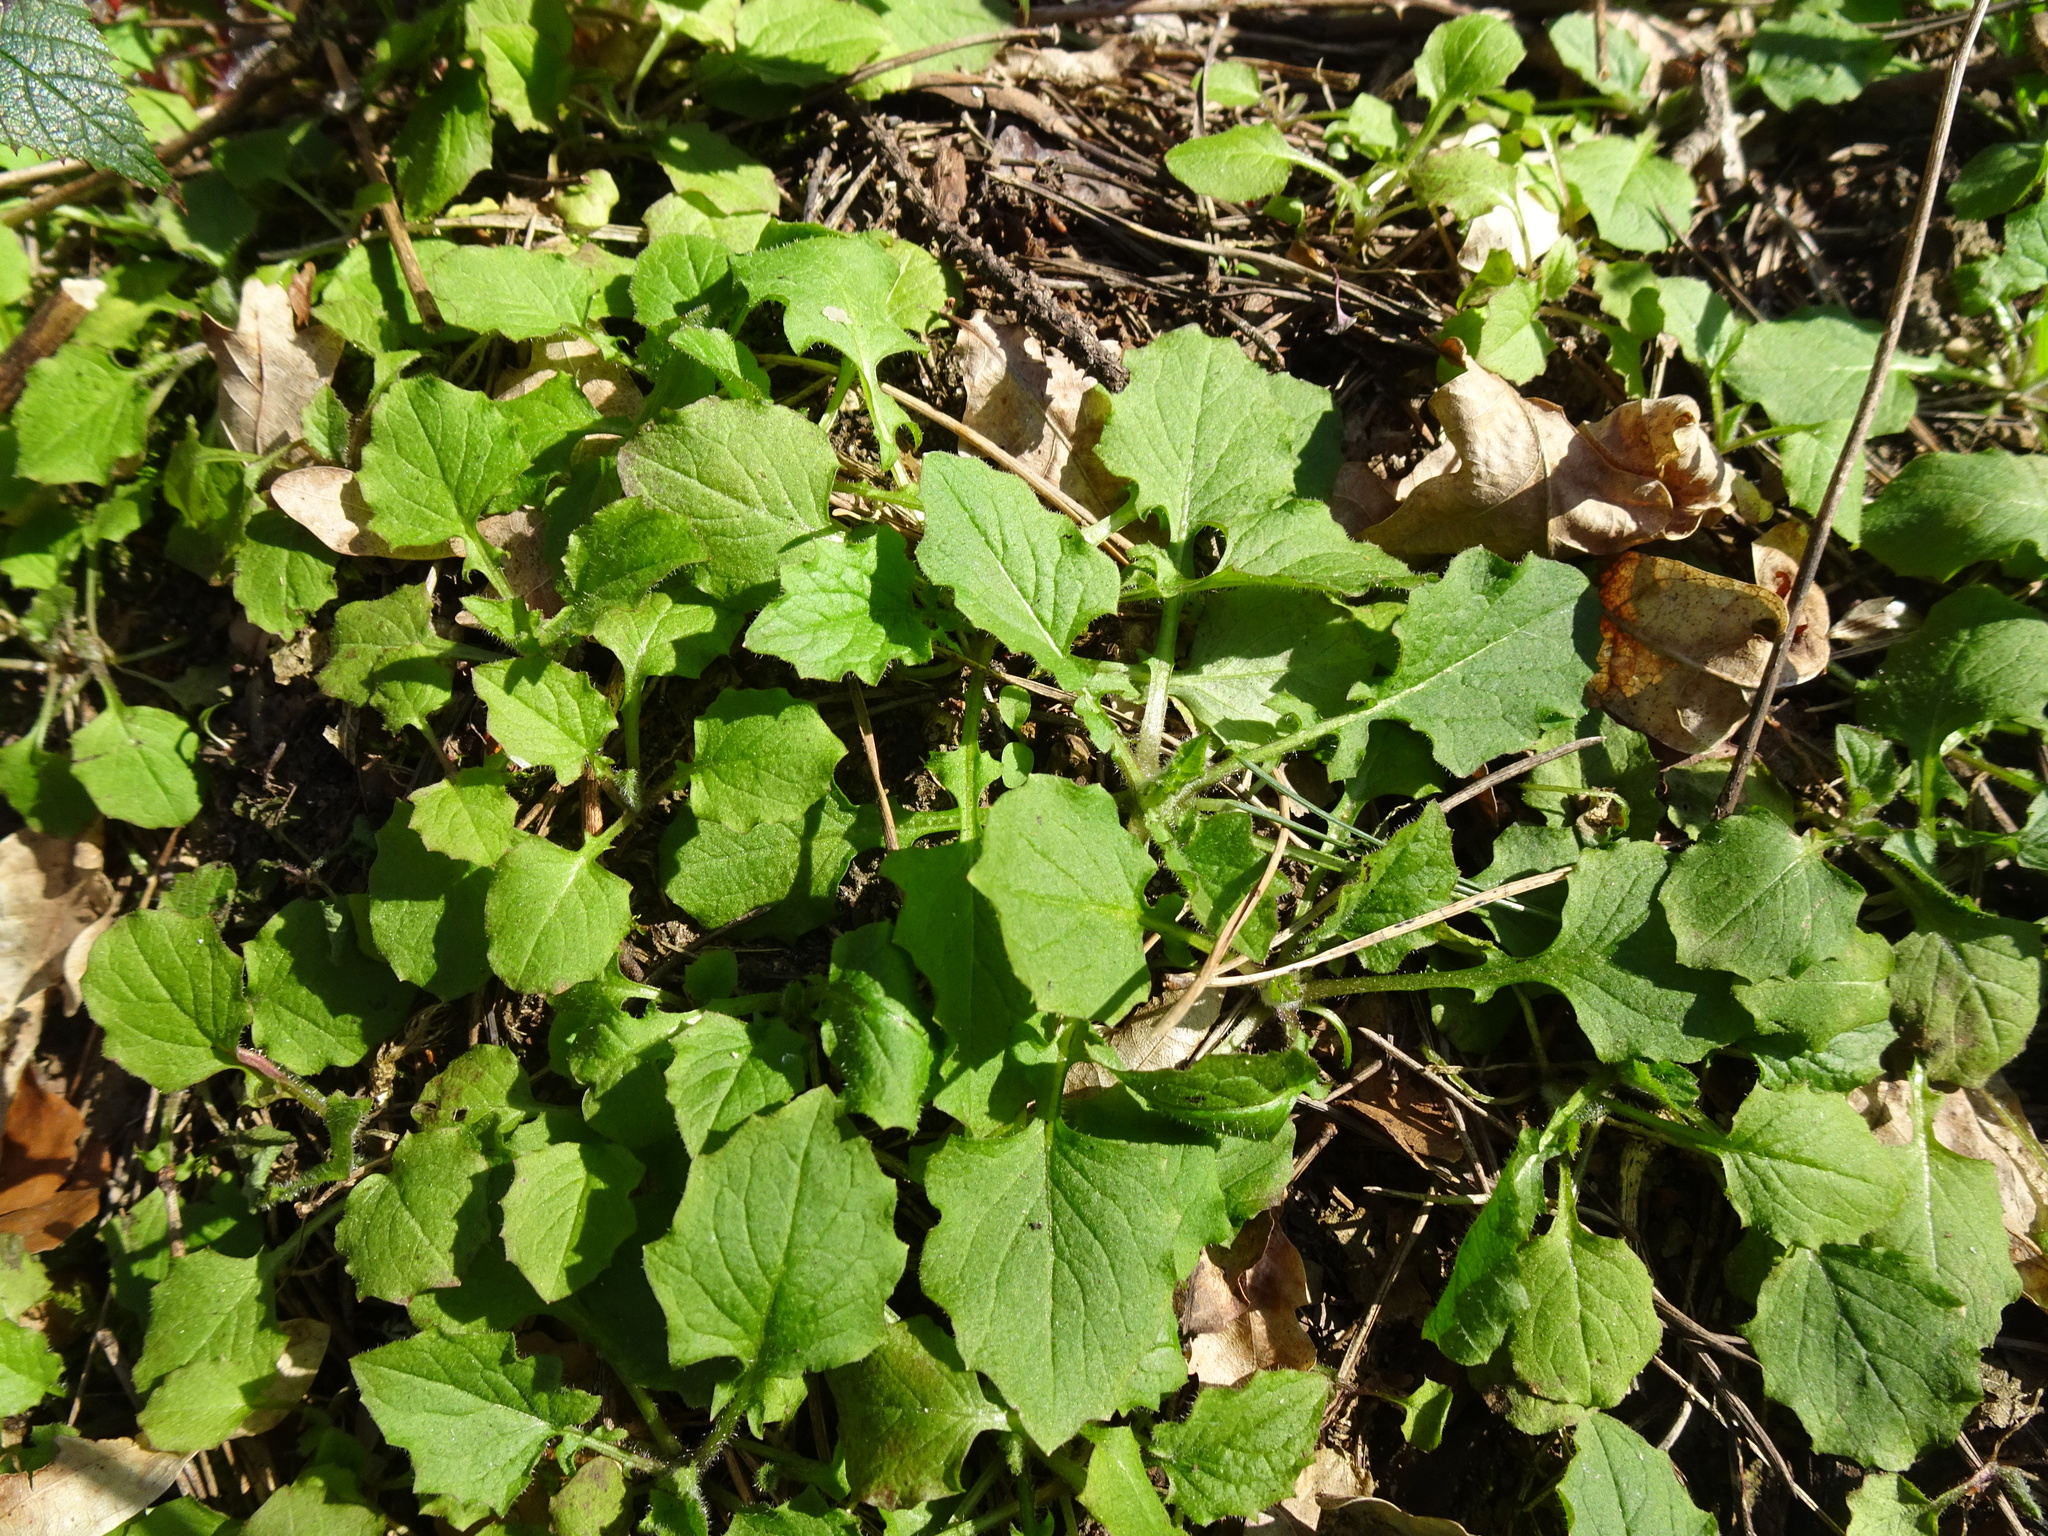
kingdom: Plantae
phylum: Tracheophyta
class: Magnoliopsida
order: Asterales
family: Asteraceae
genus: Lapsana
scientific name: Lapsana communis
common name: Nipplewort
